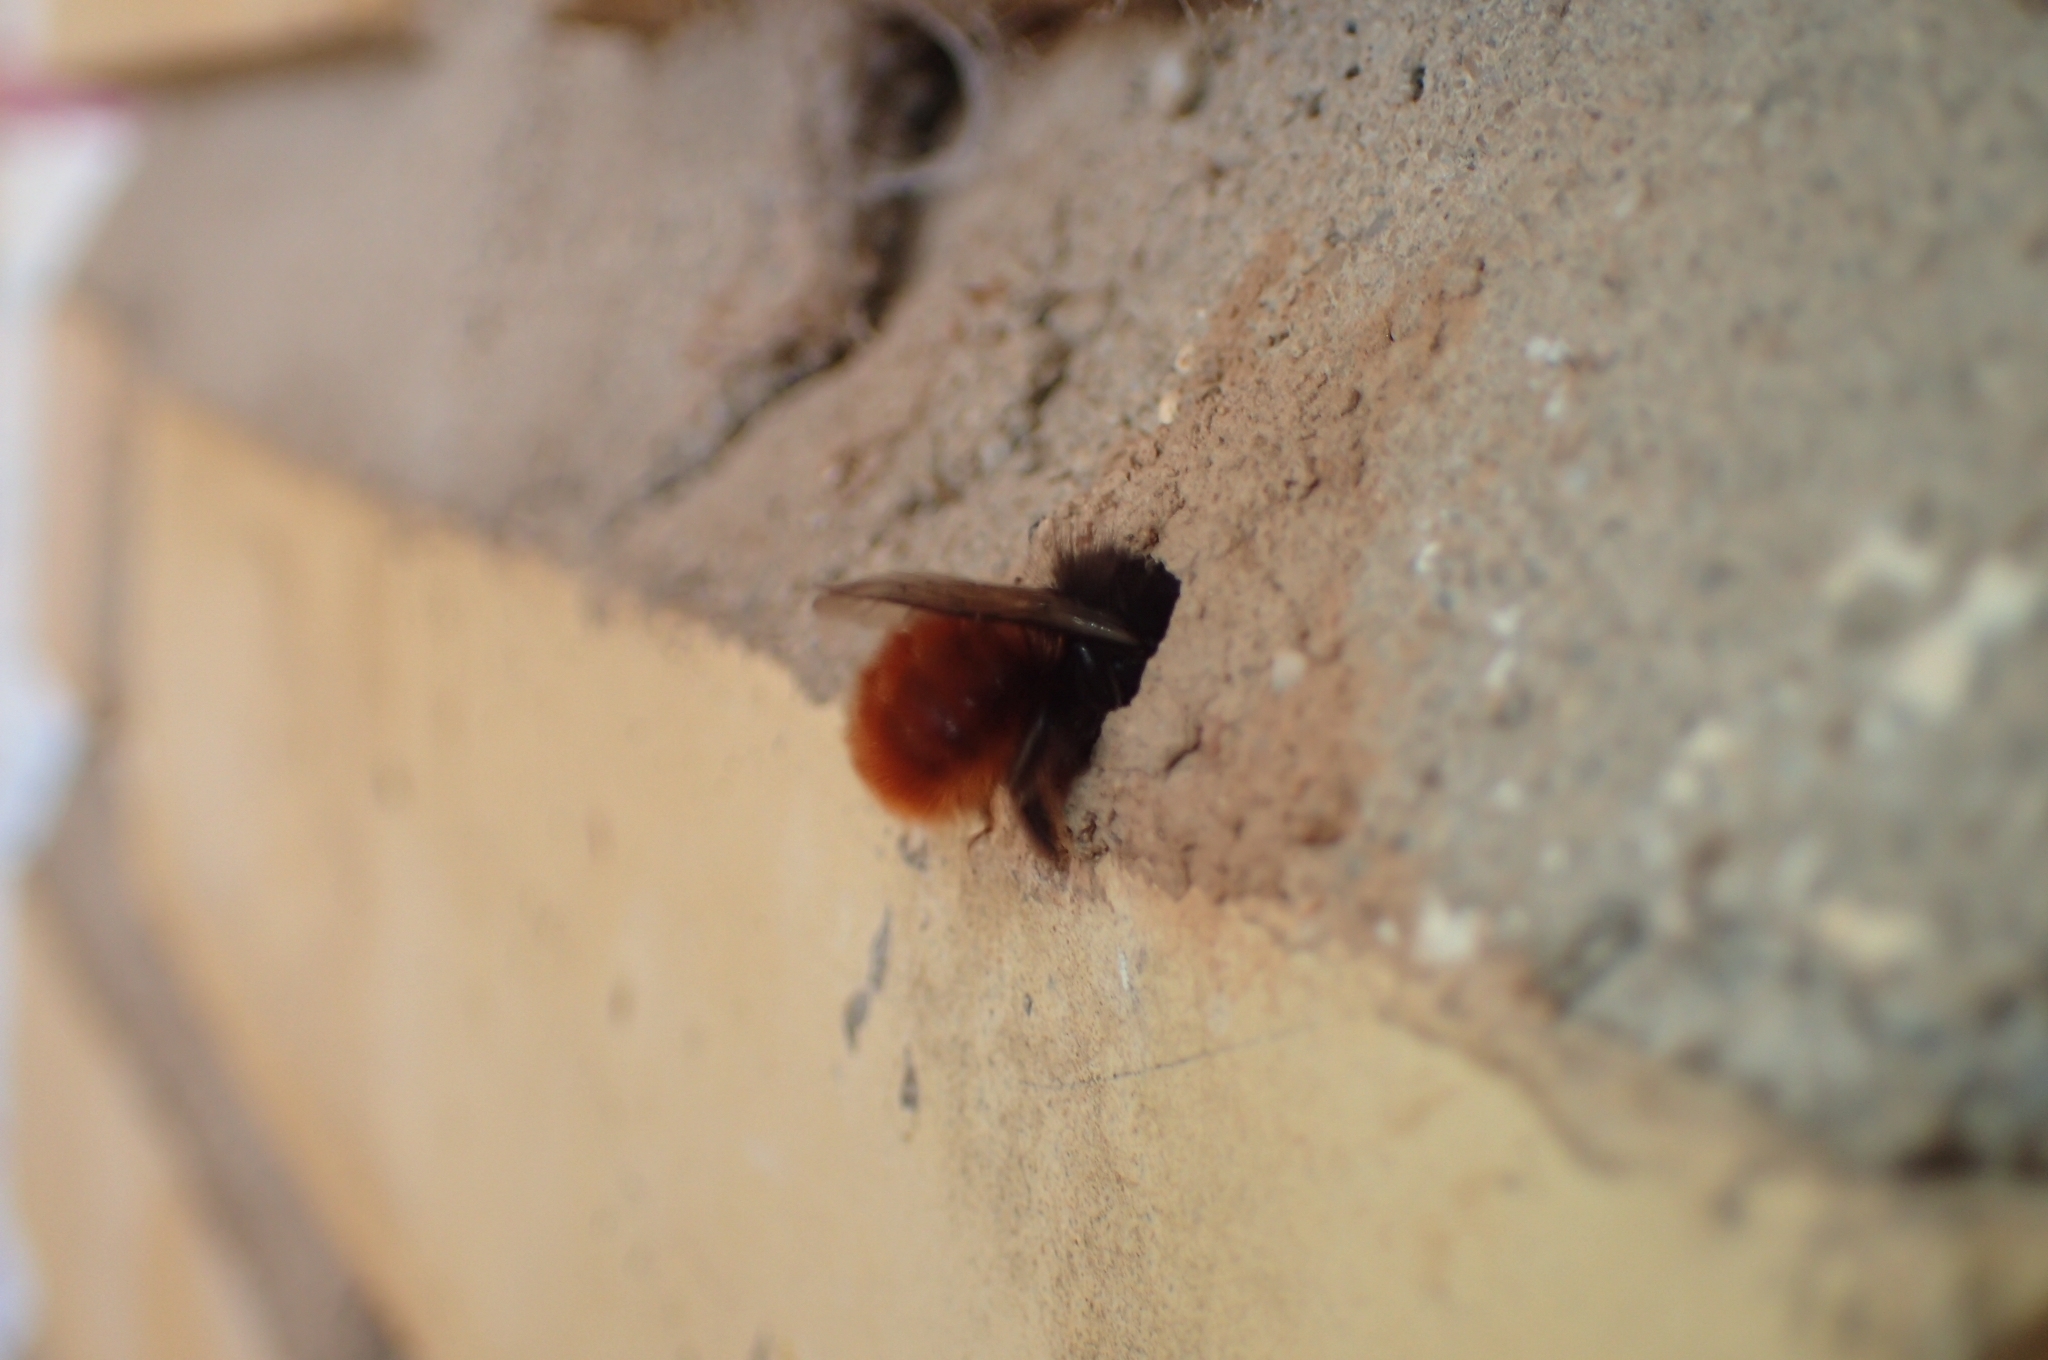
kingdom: Animalia
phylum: Arthropoda
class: Insecta
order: Hymenoptera
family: Megachilidae
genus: Osmia
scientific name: Osmia cornuta
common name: Mason bee
